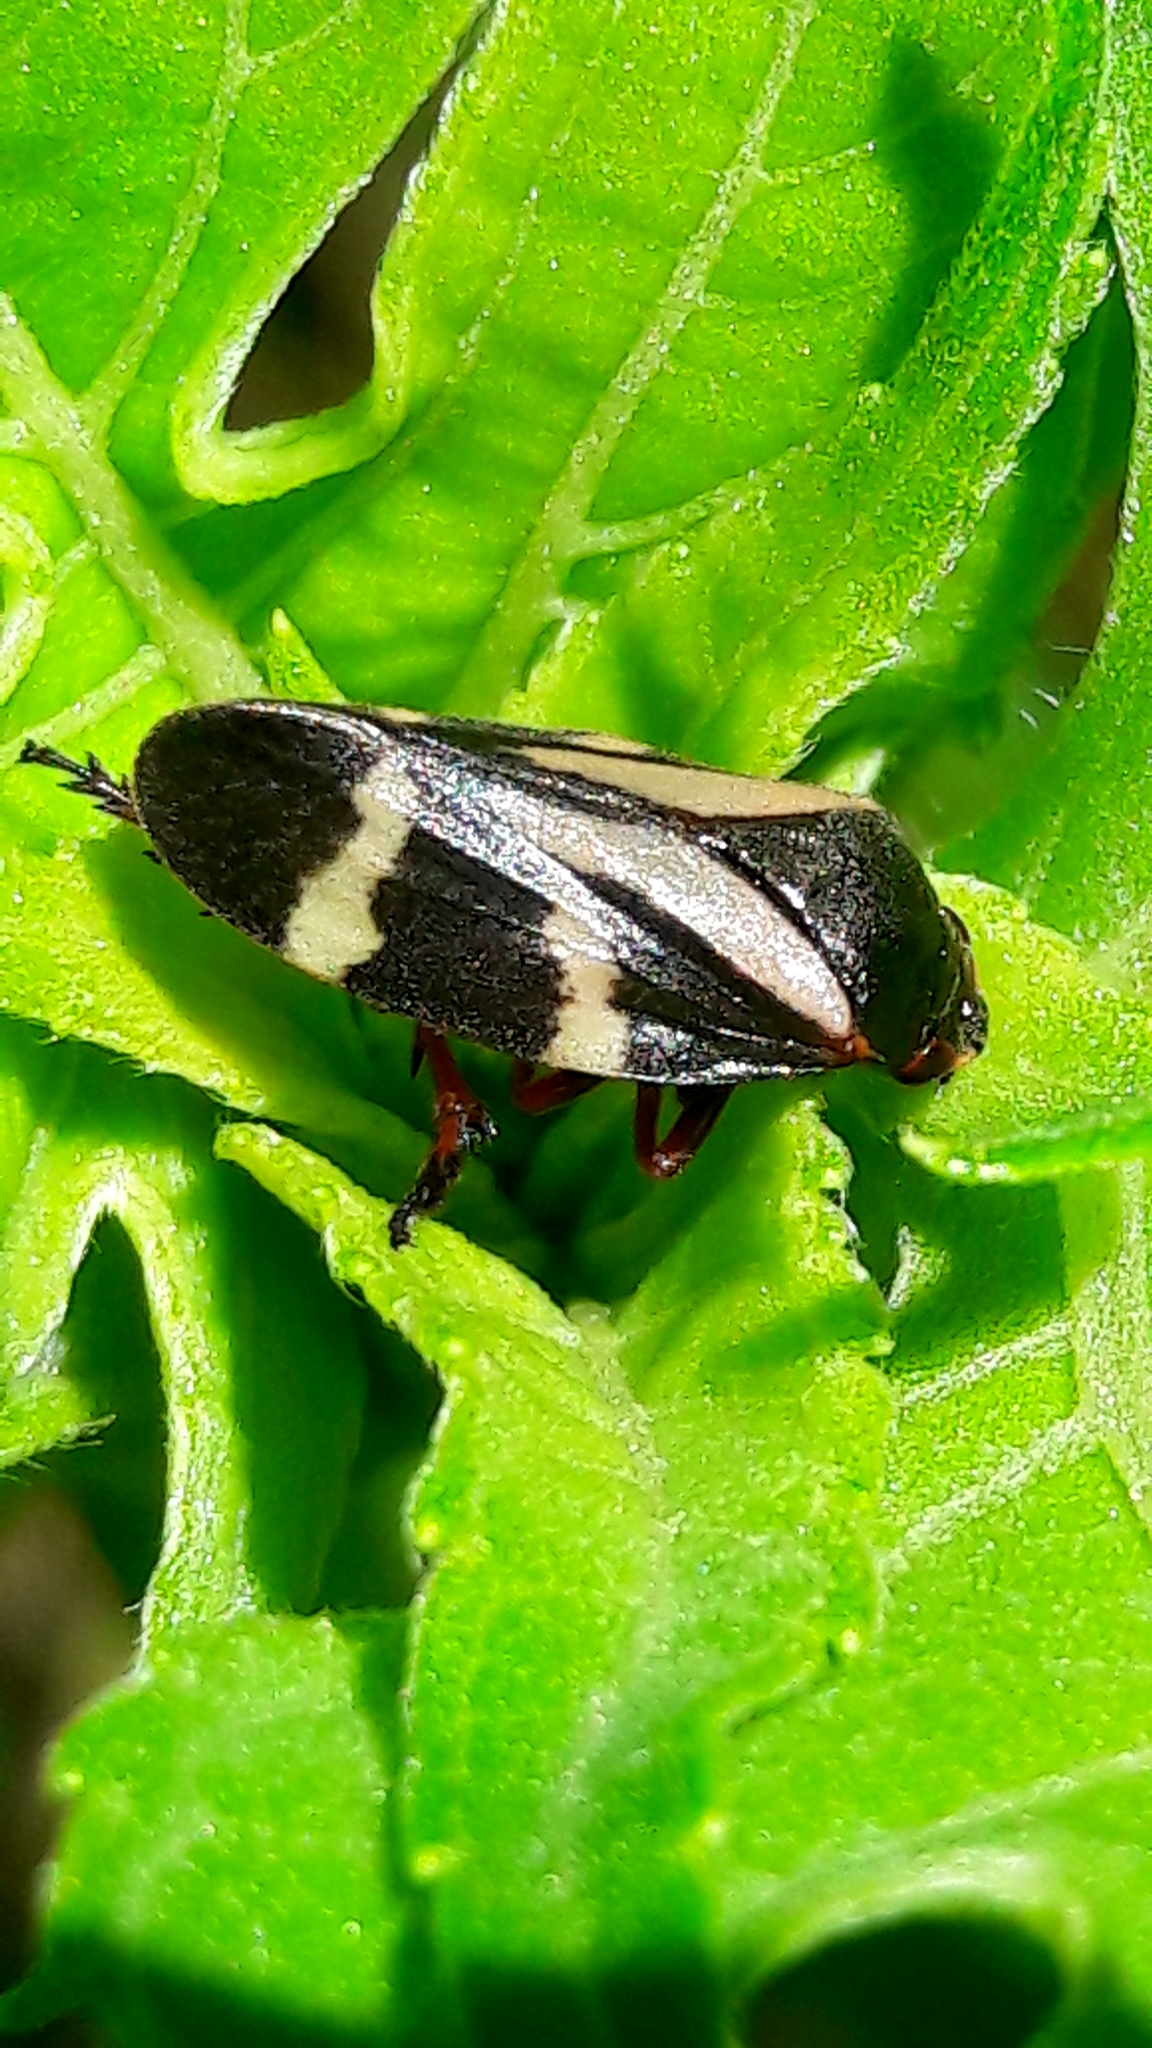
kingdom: Animalia
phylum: Arthropoda
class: Insecta
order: Hemiptera
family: Cercopidae
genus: Deois
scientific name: Deois flavopicta
